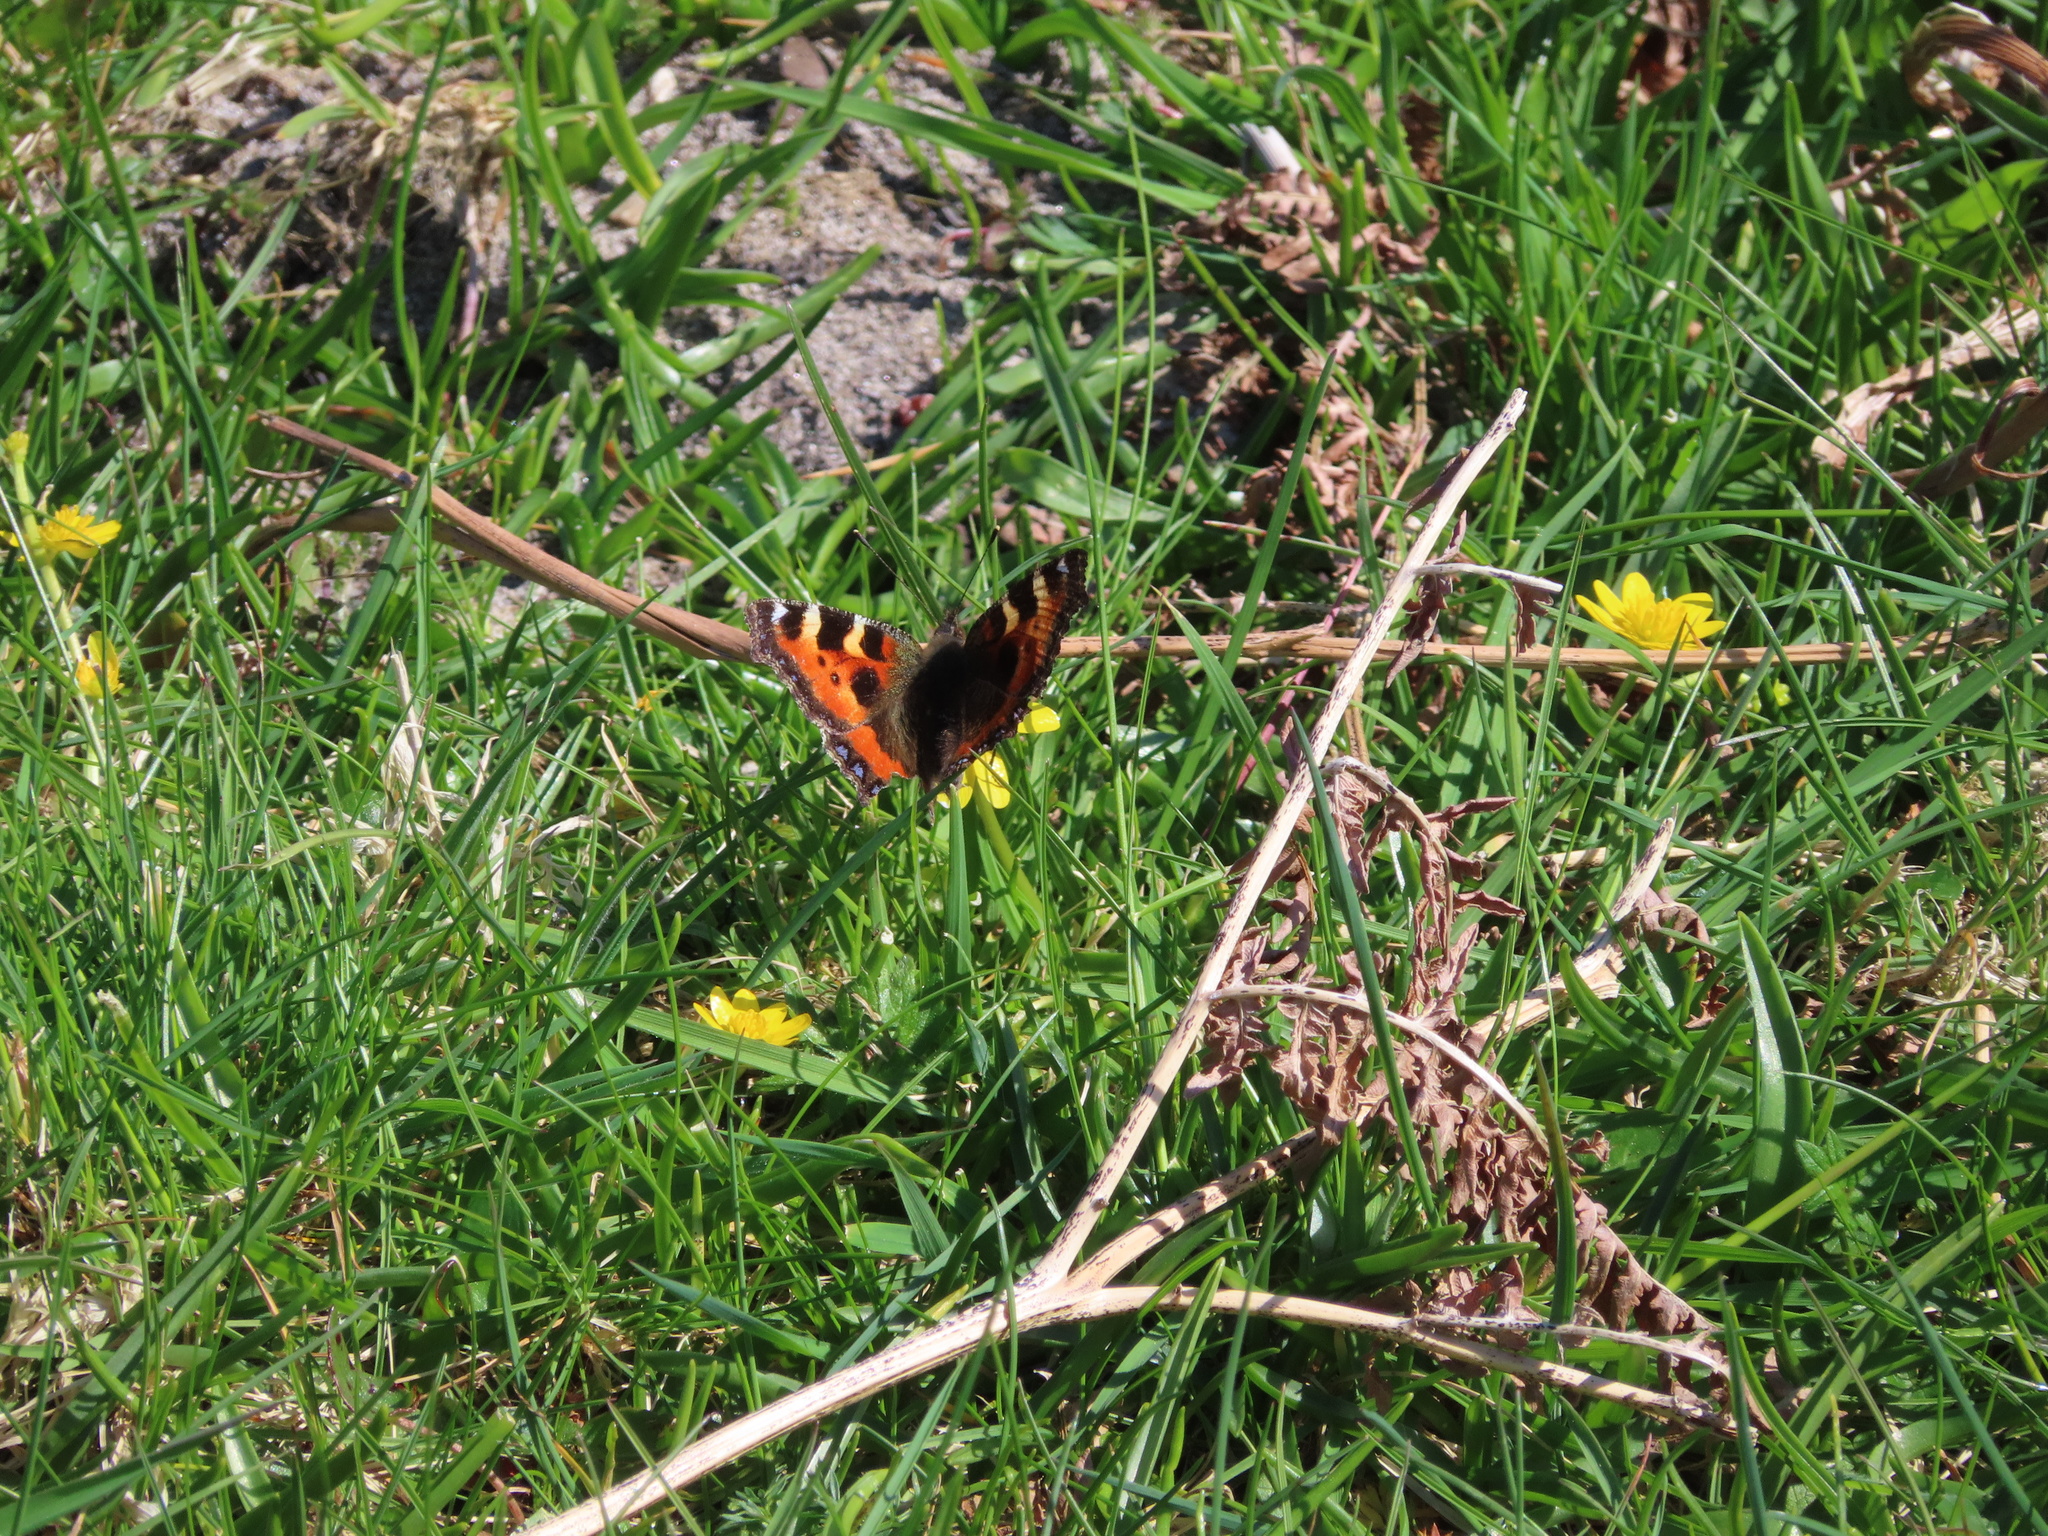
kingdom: Animalia
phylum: Arthropoda
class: Insecta
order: Lepidoptera
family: Nymphalidae
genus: Aglais
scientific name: Aglais urticae
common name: Small tortoiseshell
